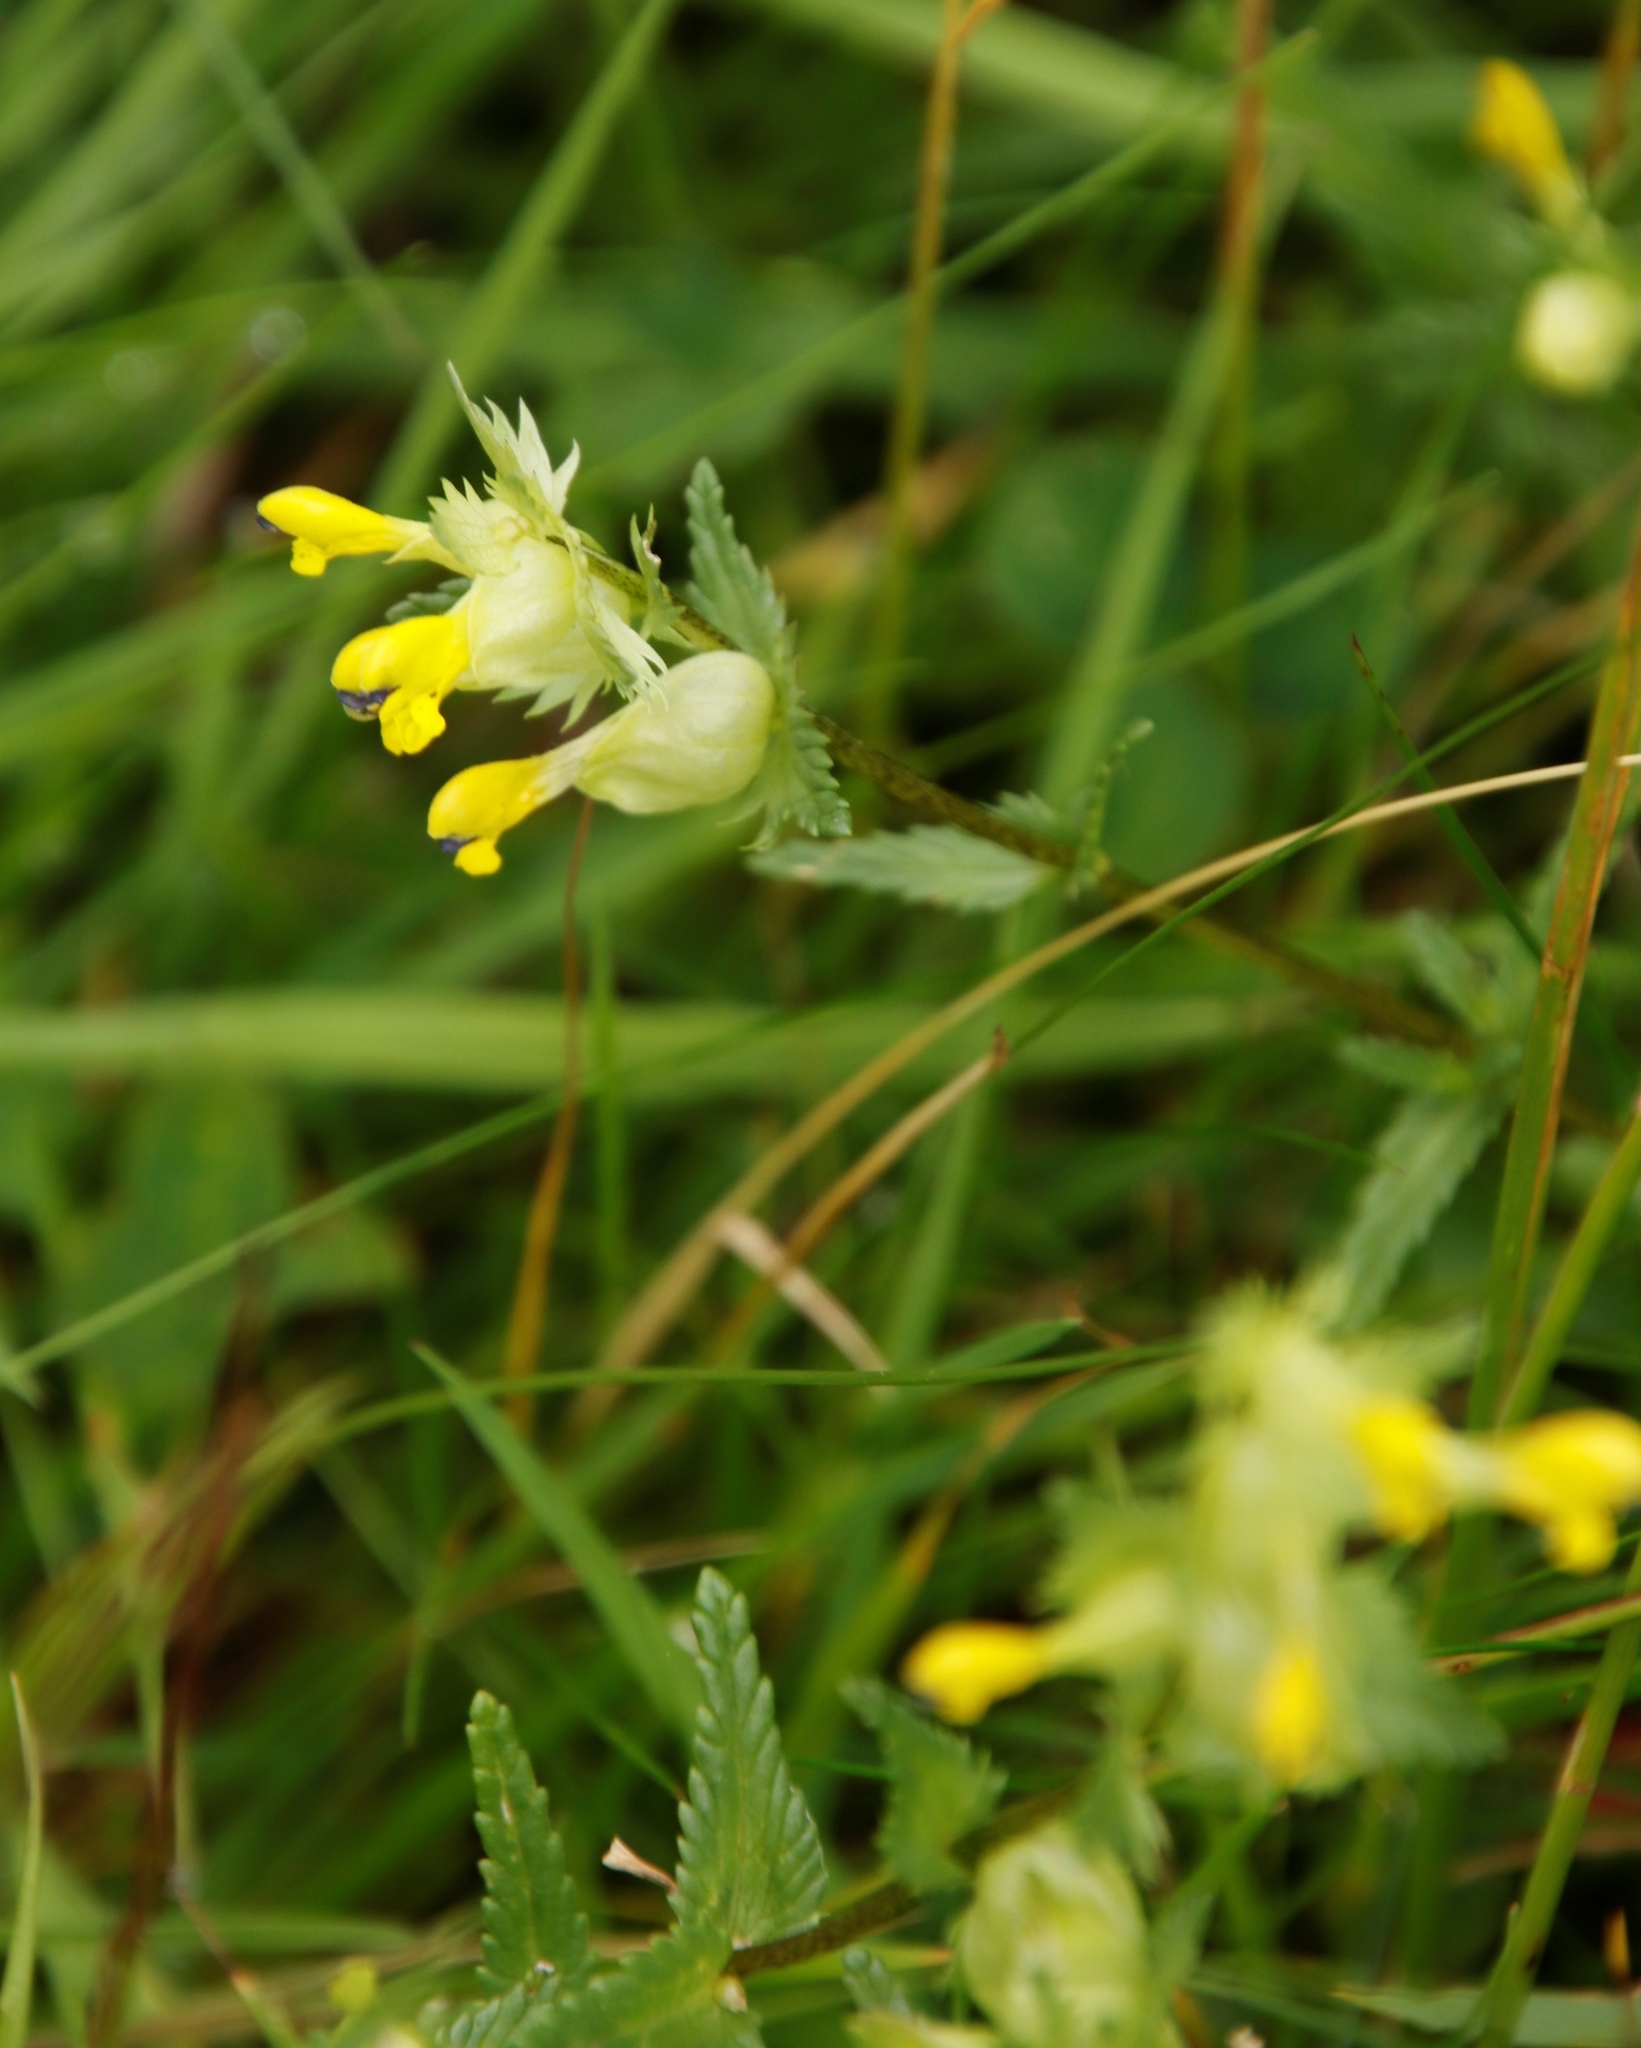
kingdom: Plantae
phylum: Tracheophyta
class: Magnoliopsida
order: Lamiales
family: Orobanchaceae
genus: Rhinanthus
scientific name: Rhinanthus minor
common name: Yellow-rattle
